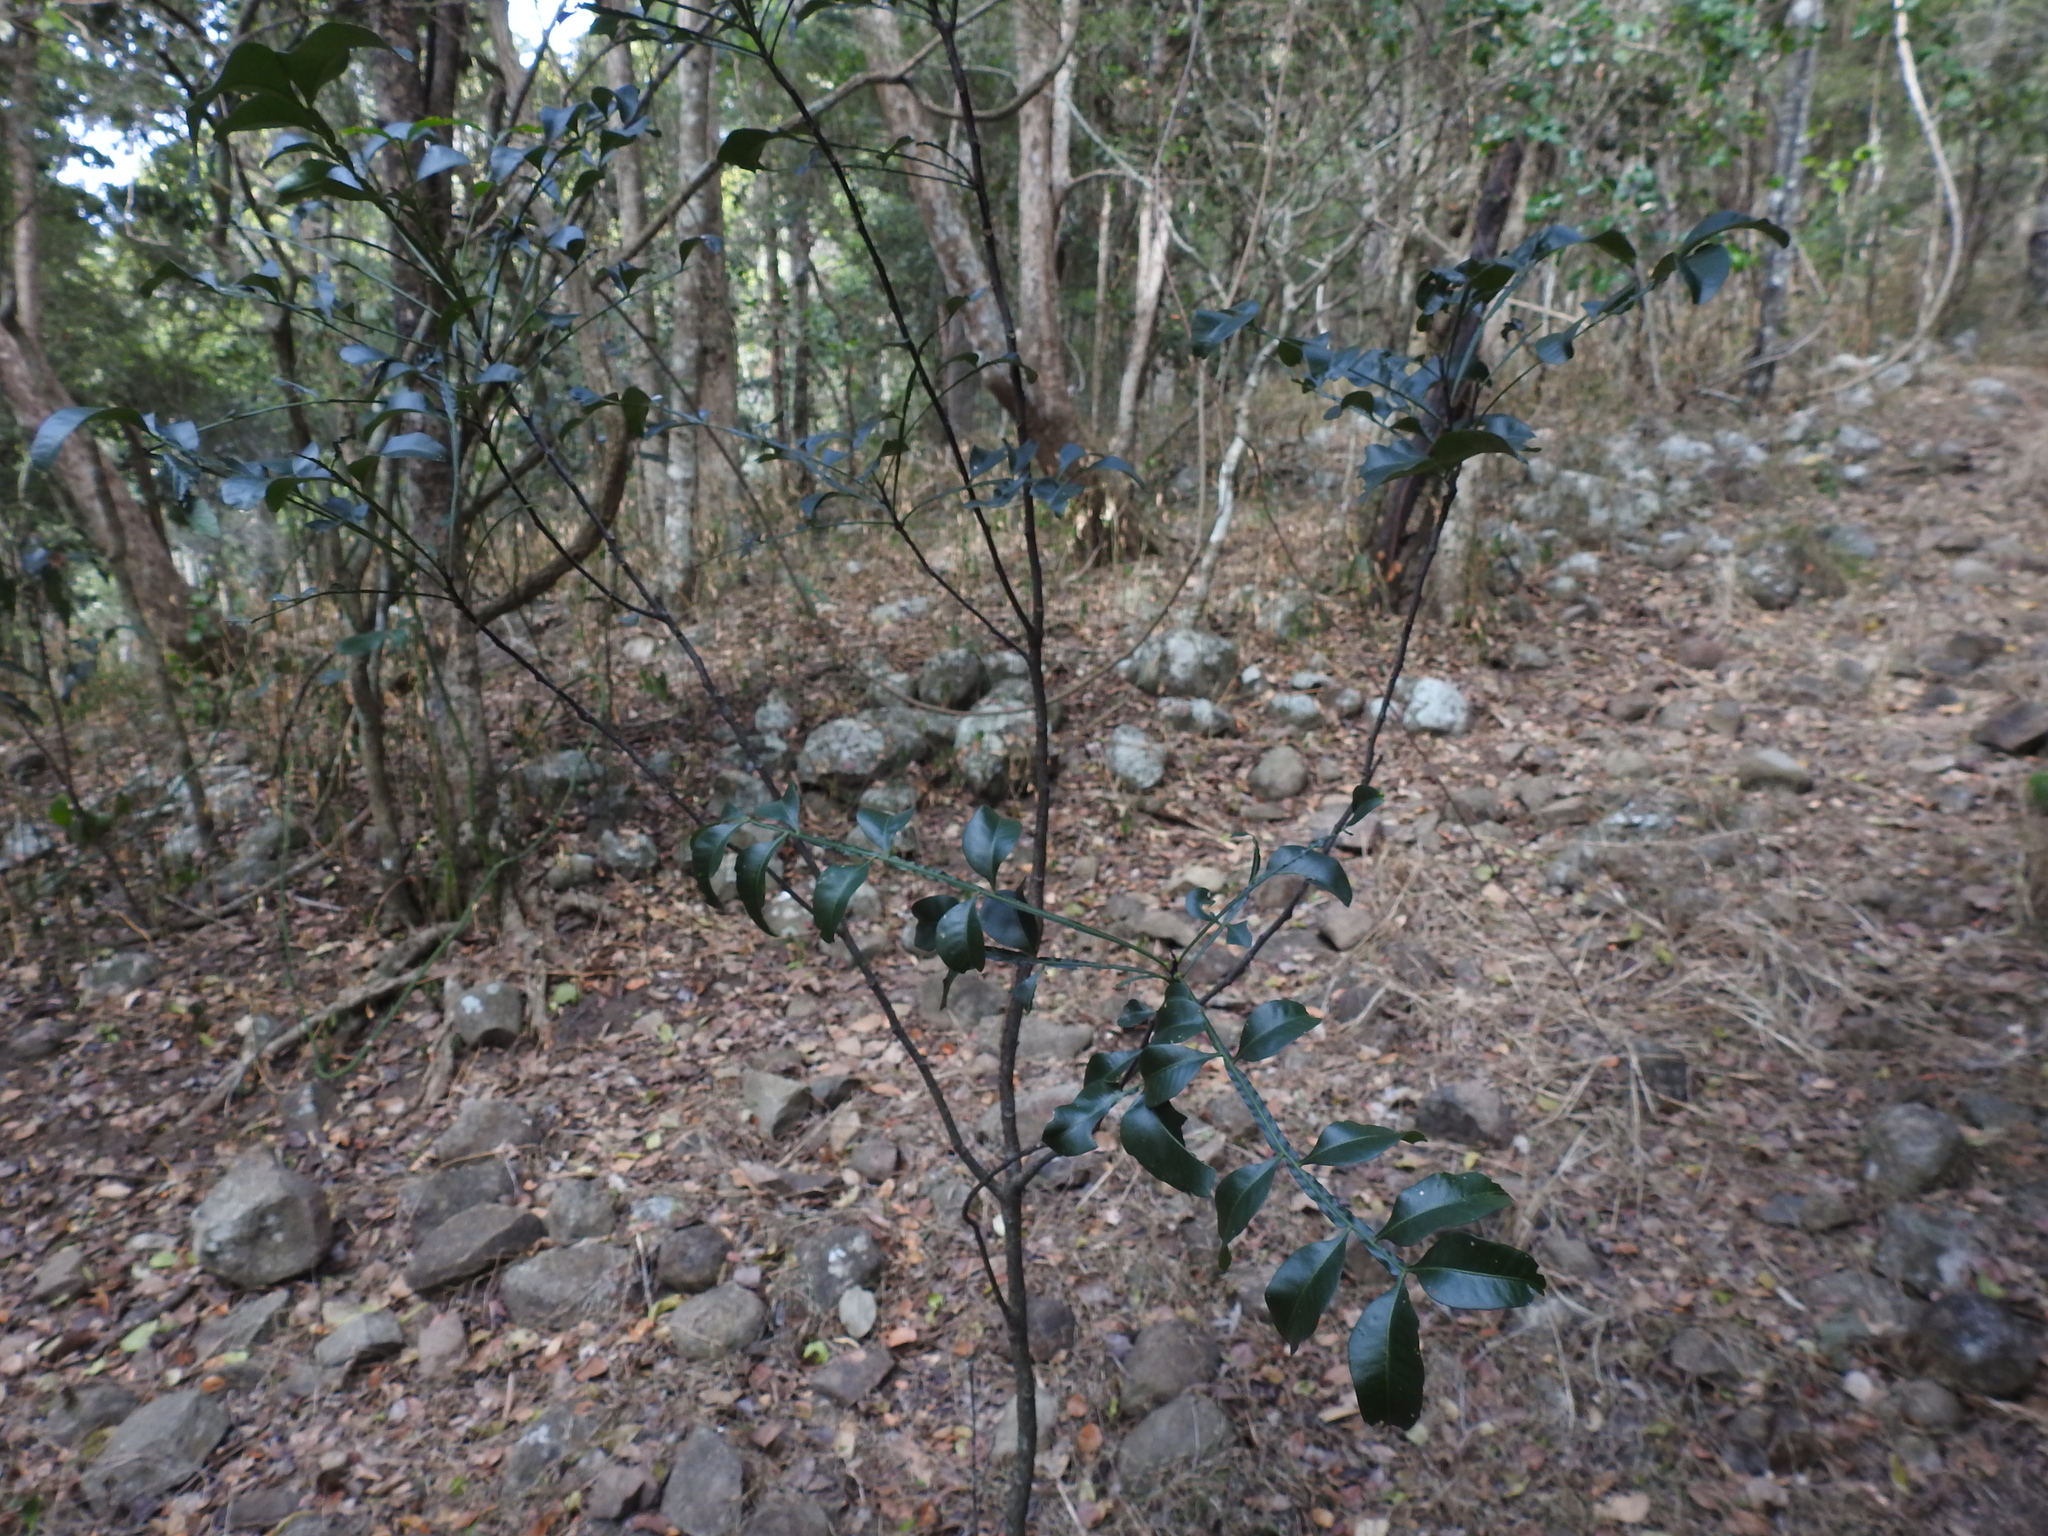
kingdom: Plantae
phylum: Tracheophyta
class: Magnoliopsida
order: Sapindales
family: Meliaceae
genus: Owenia
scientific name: Owenia venosa
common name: Crow's-apple
